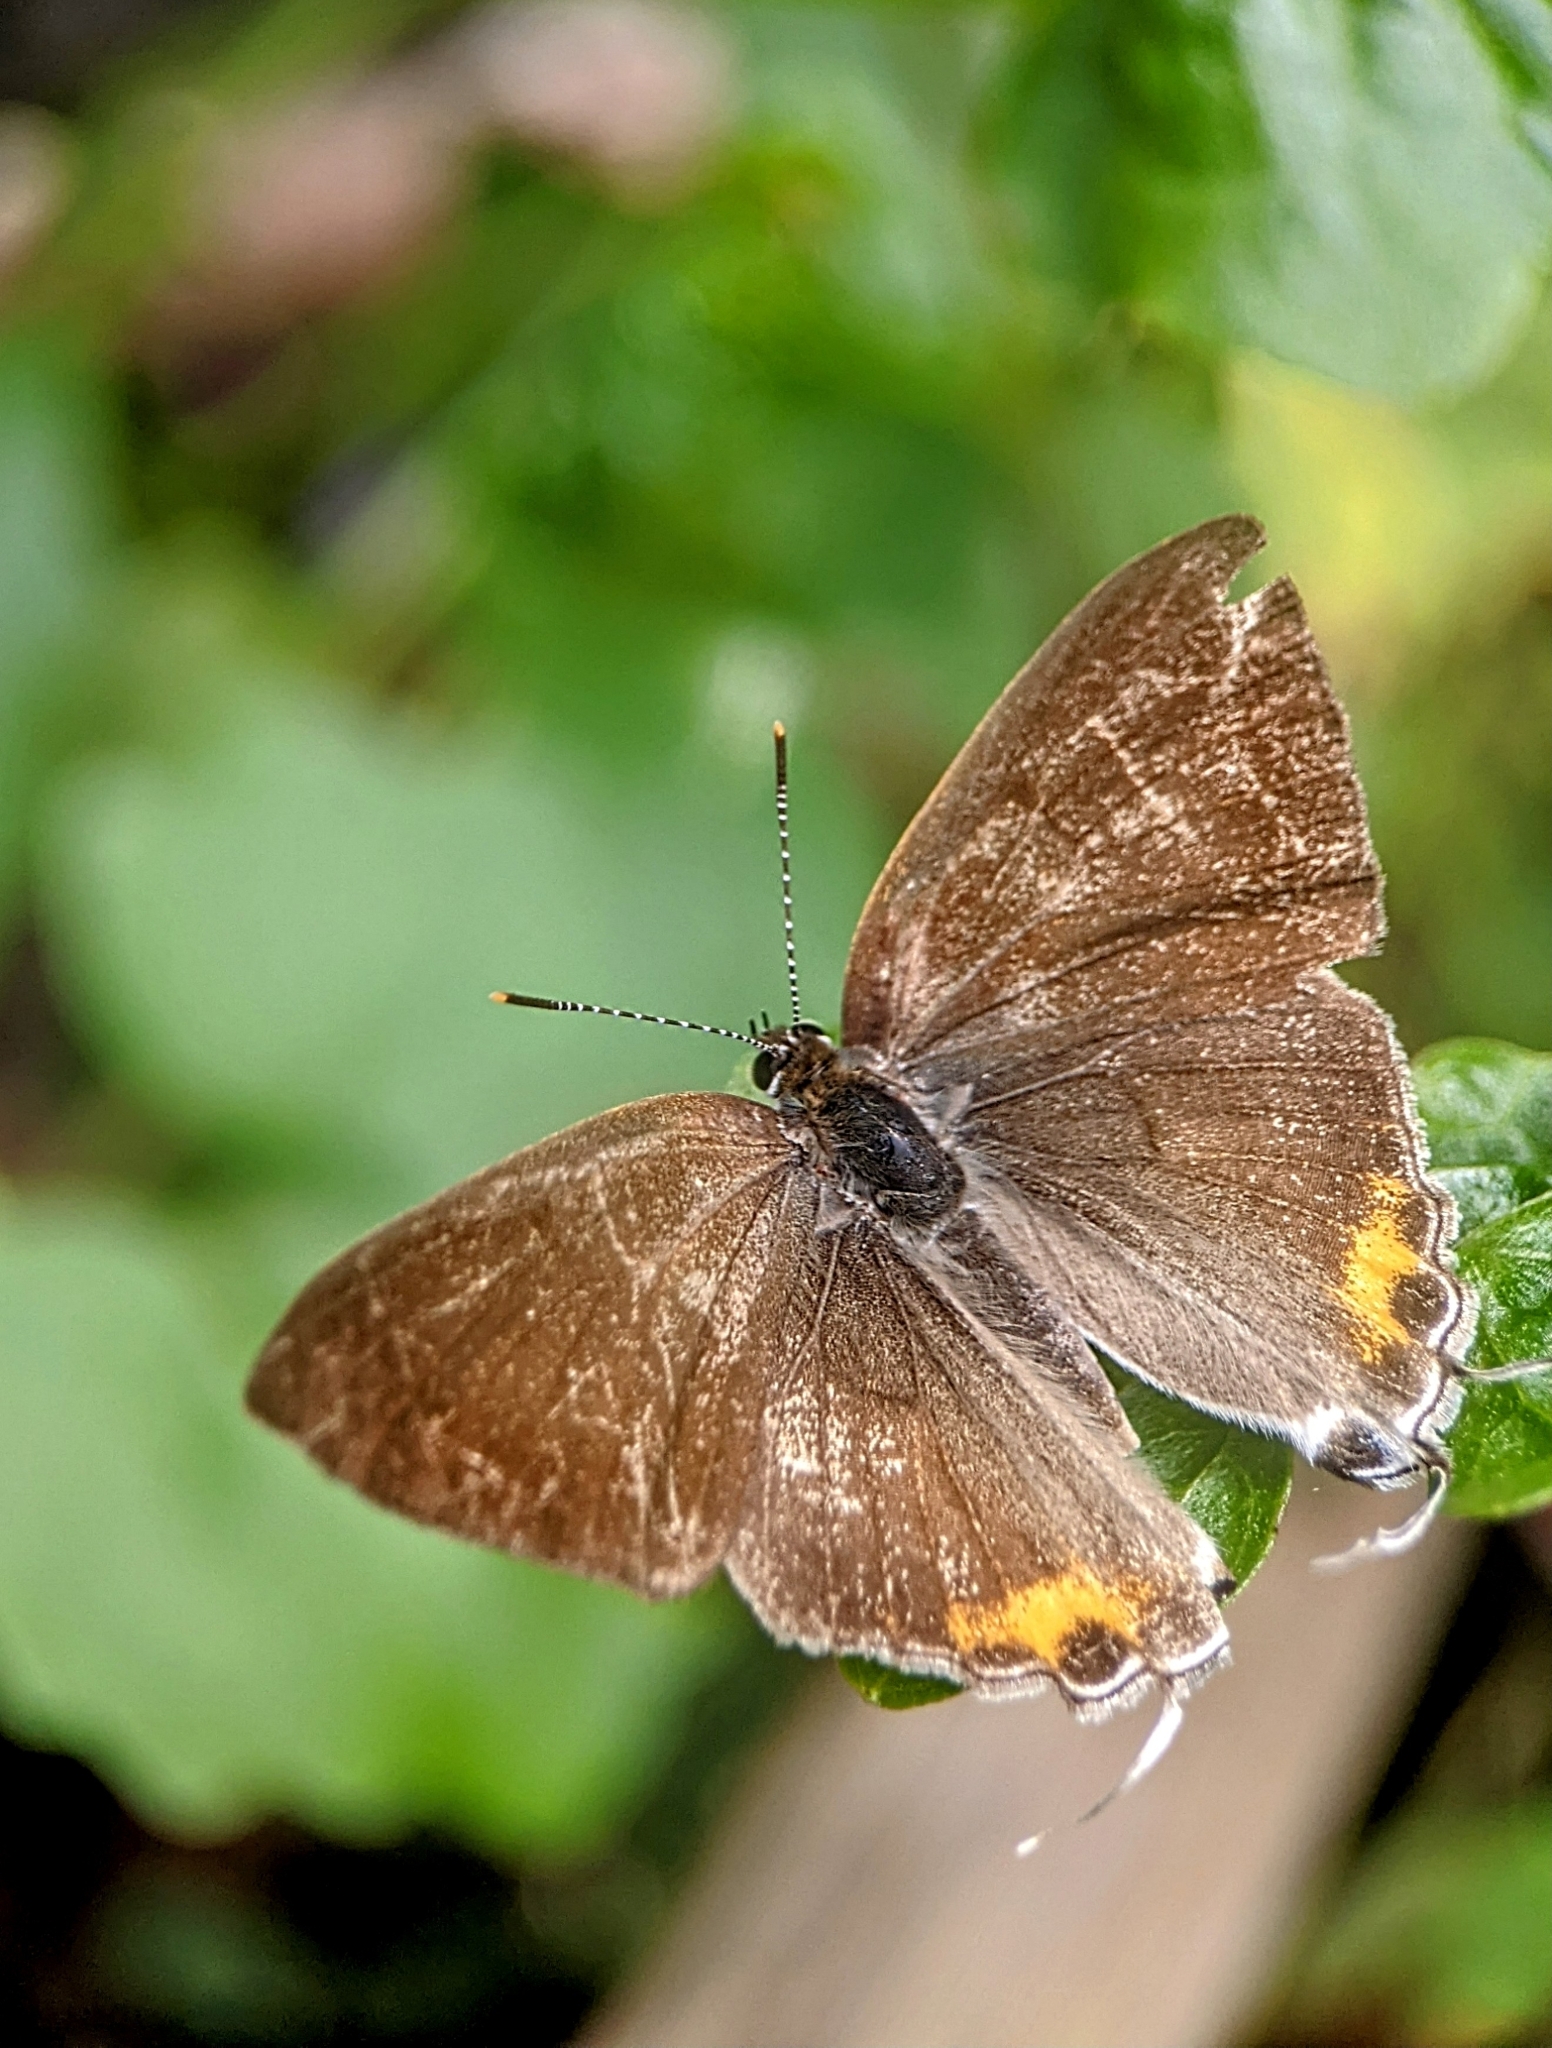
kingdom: Animalia
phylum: Arthropoda
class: Insecta
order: Lepidoptera
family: Lycaenidae
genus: Hypolycaena
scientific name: Hypolycaena thecloides
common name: Dark tit
